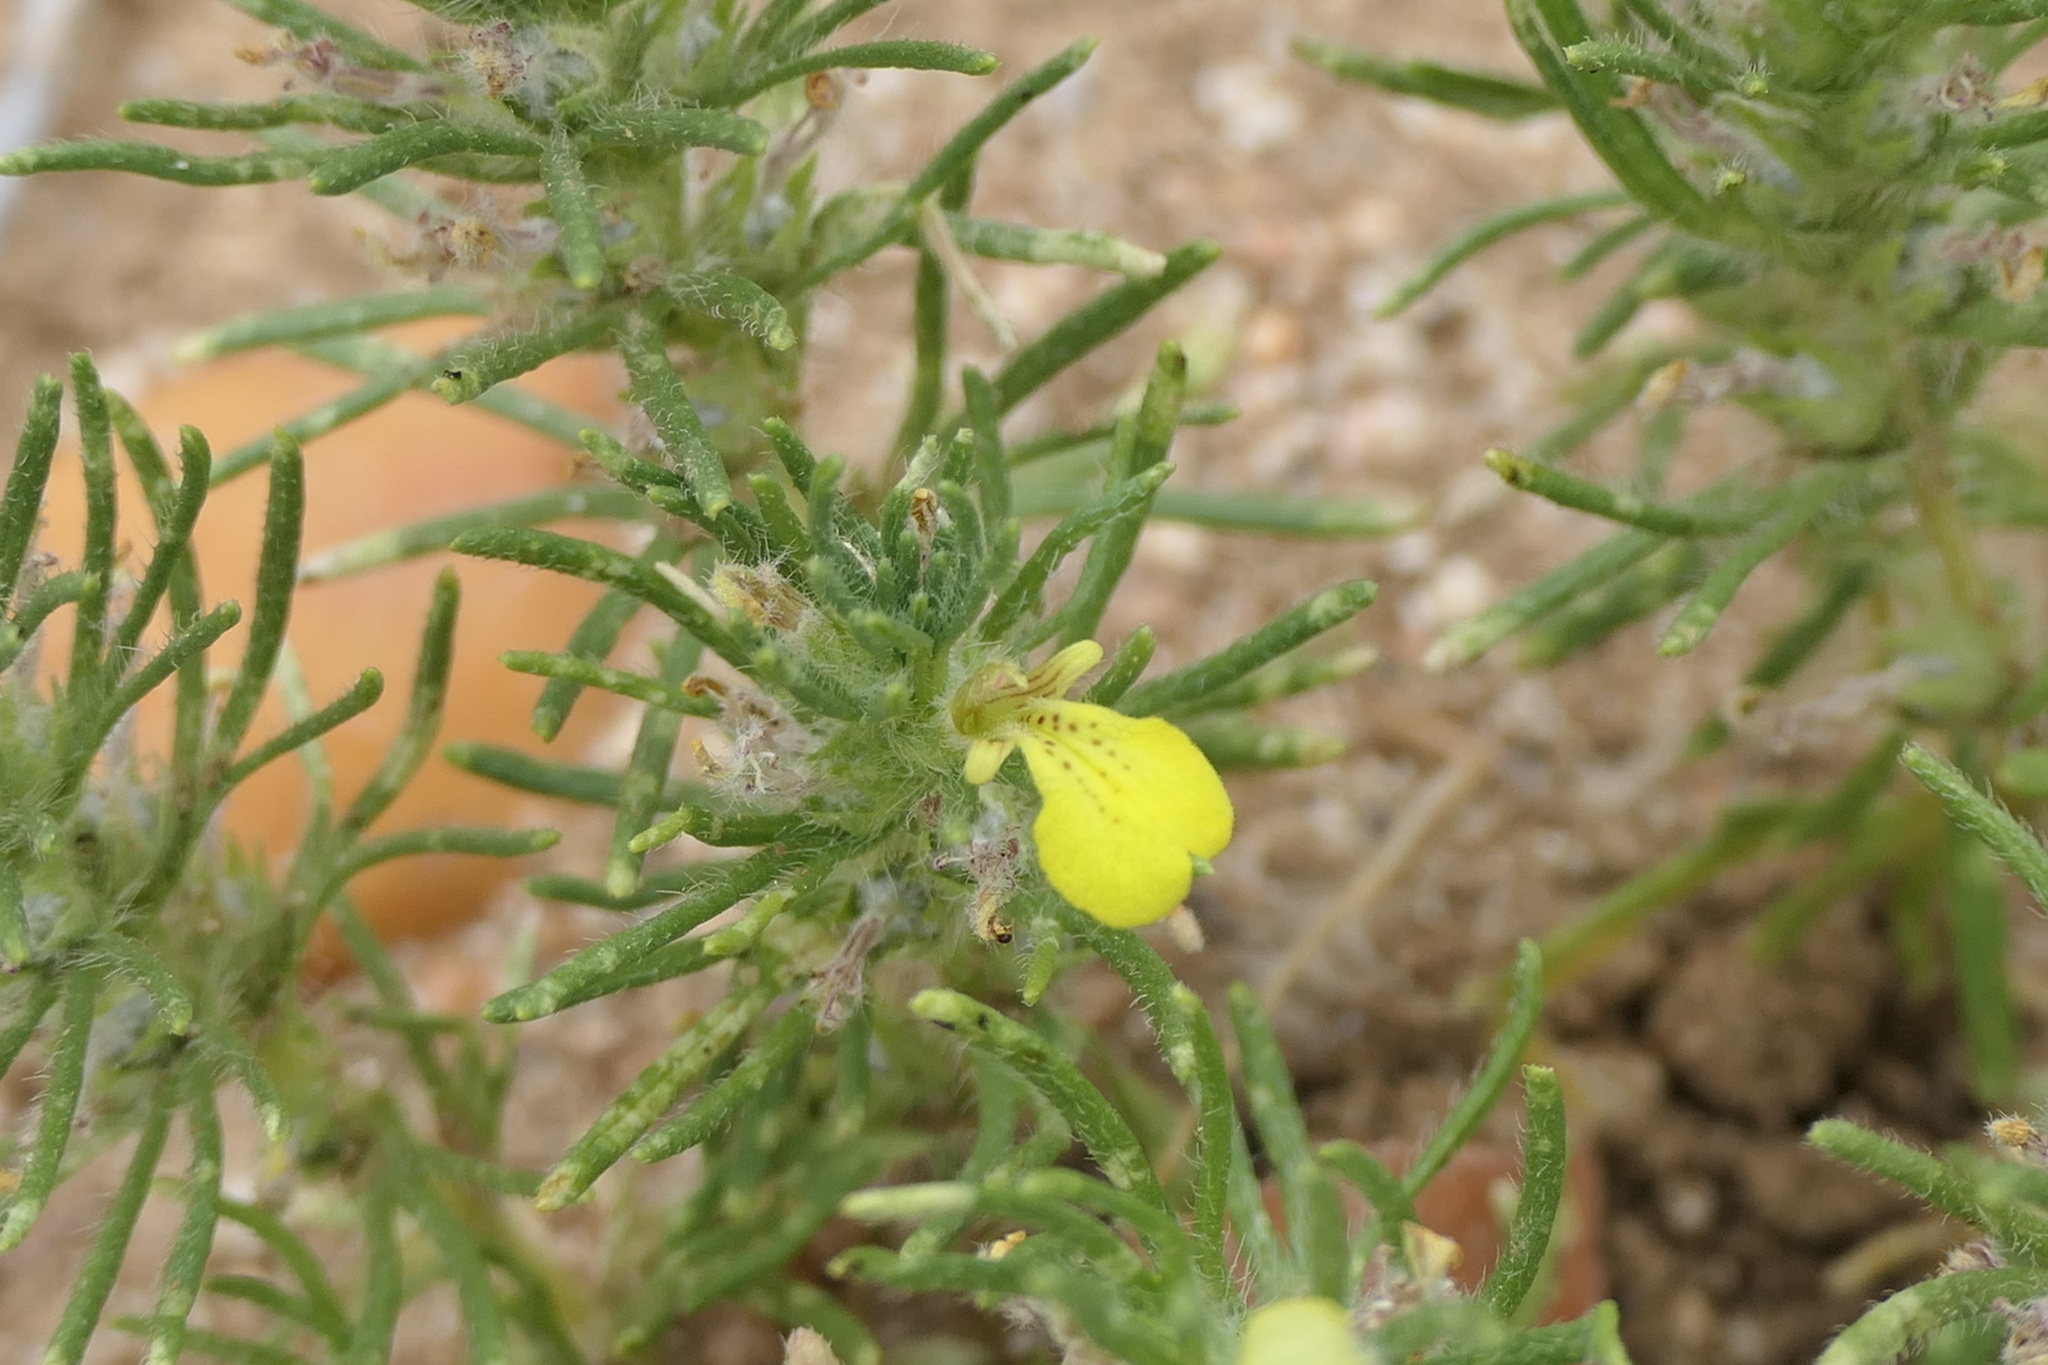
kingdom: Plantae
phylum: Tracheophyta
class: Magnoliopsida
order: Lamiales
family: Lamiaceae
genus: Ajuga
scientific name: Ajuga chamaepitys
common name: Ground-pine
